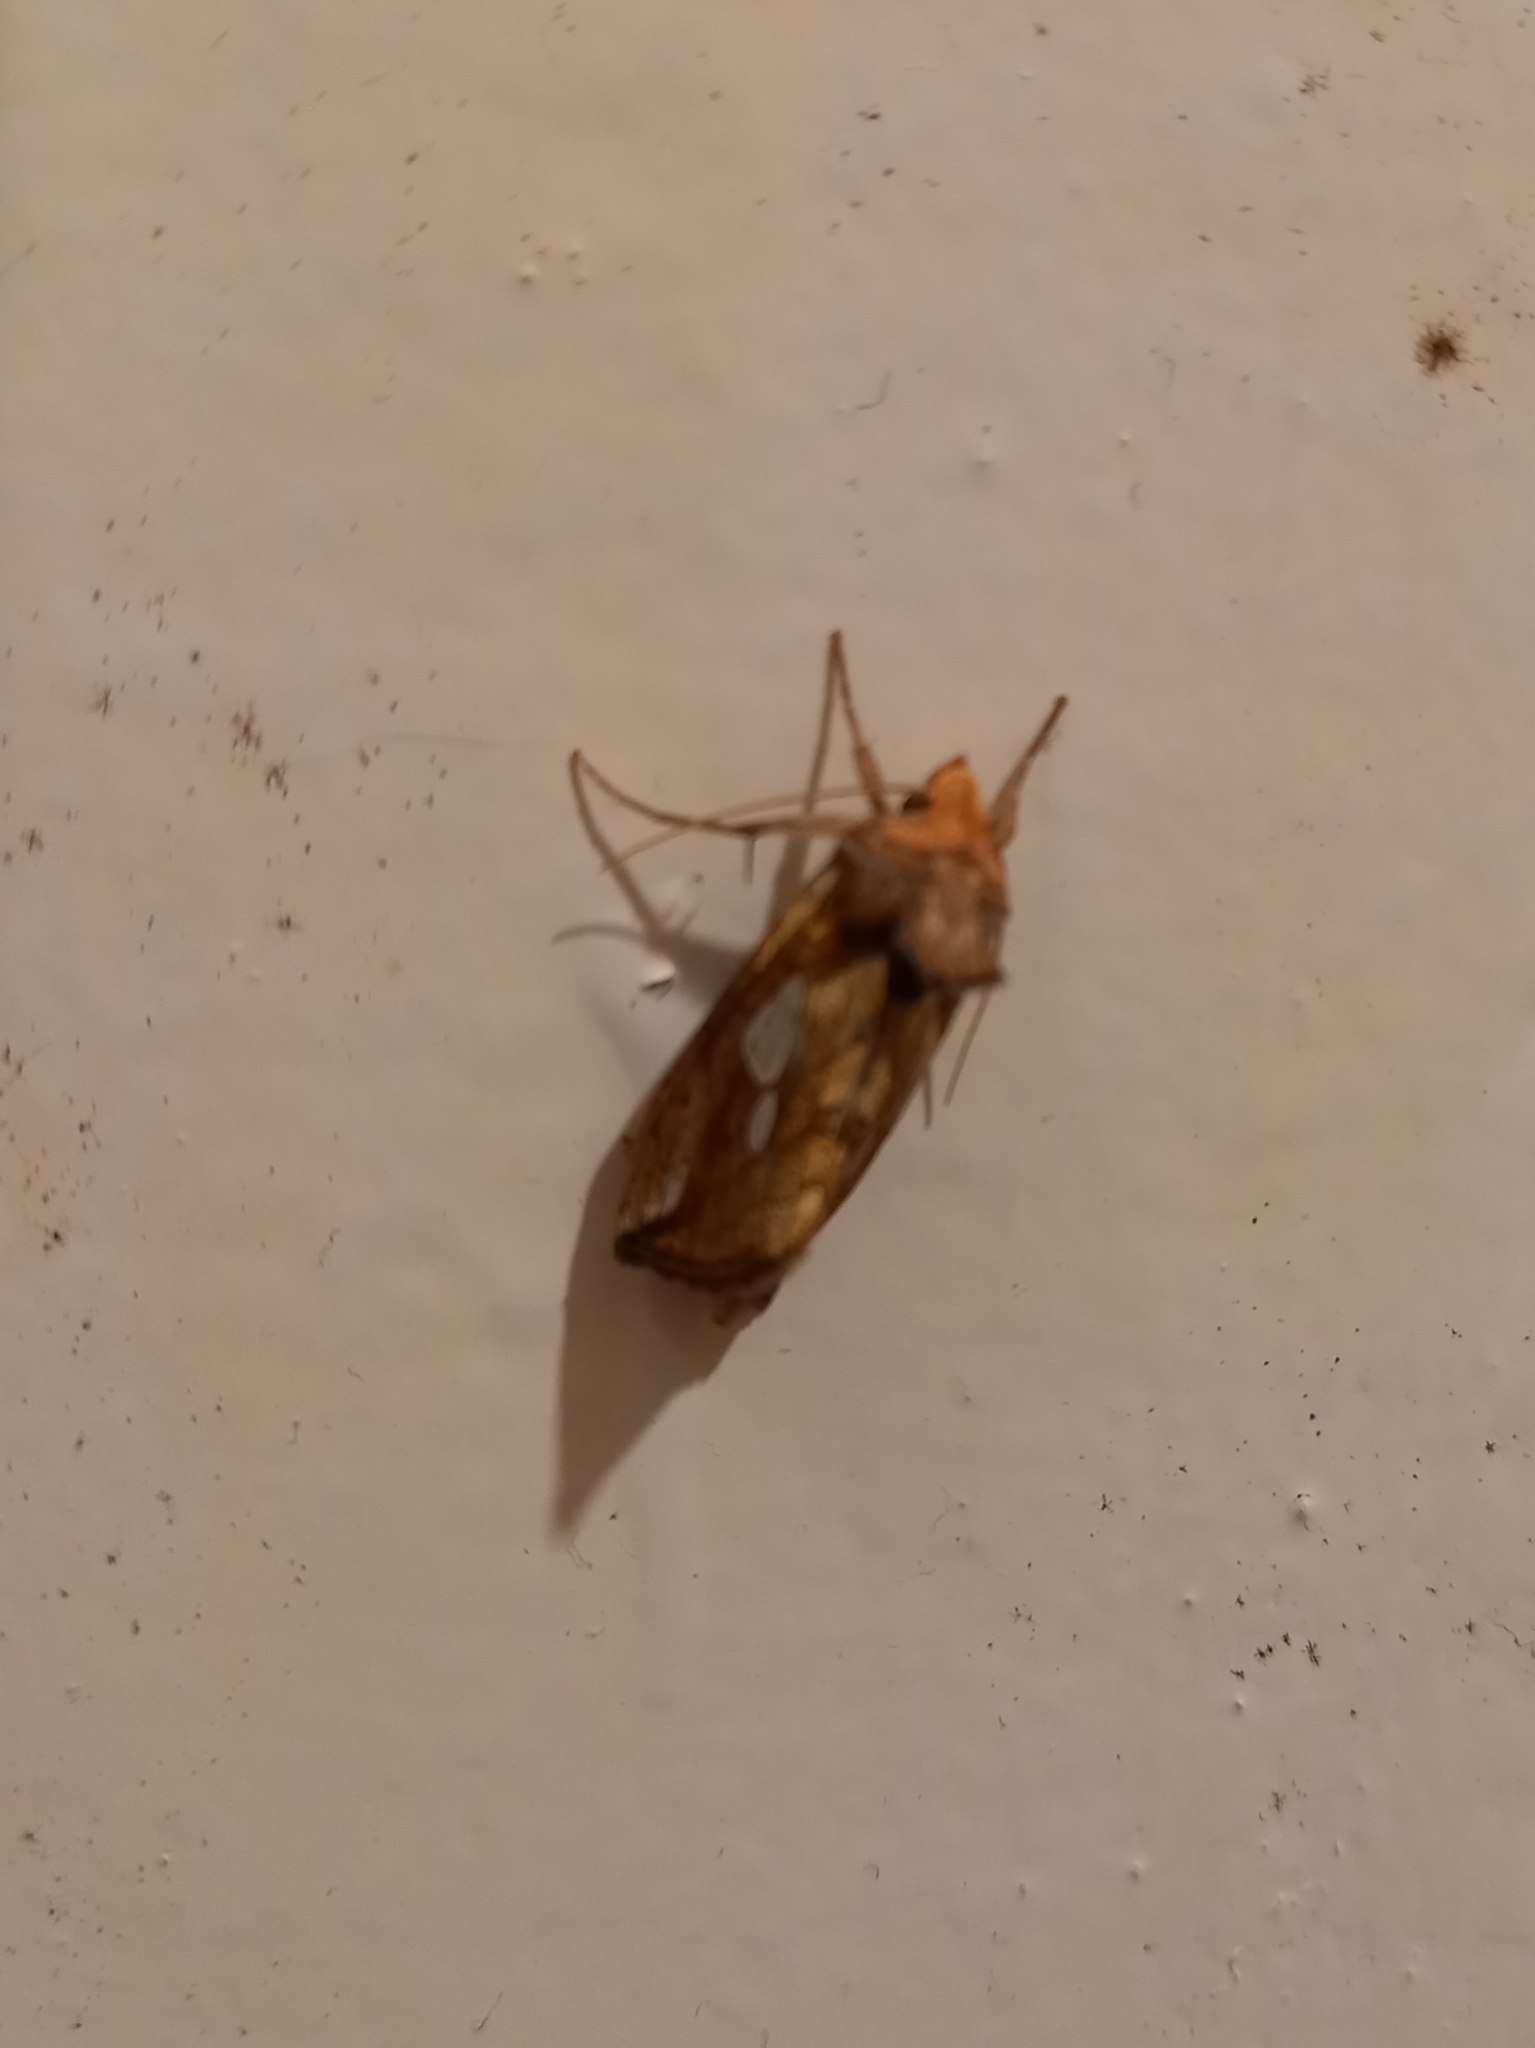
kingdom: Animalia
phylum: Arthropoda
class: Insecta
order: Lepidoptera
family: Noctuidae
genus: Plusia
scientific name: Plusia putnami
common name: Lempke's gold spot
